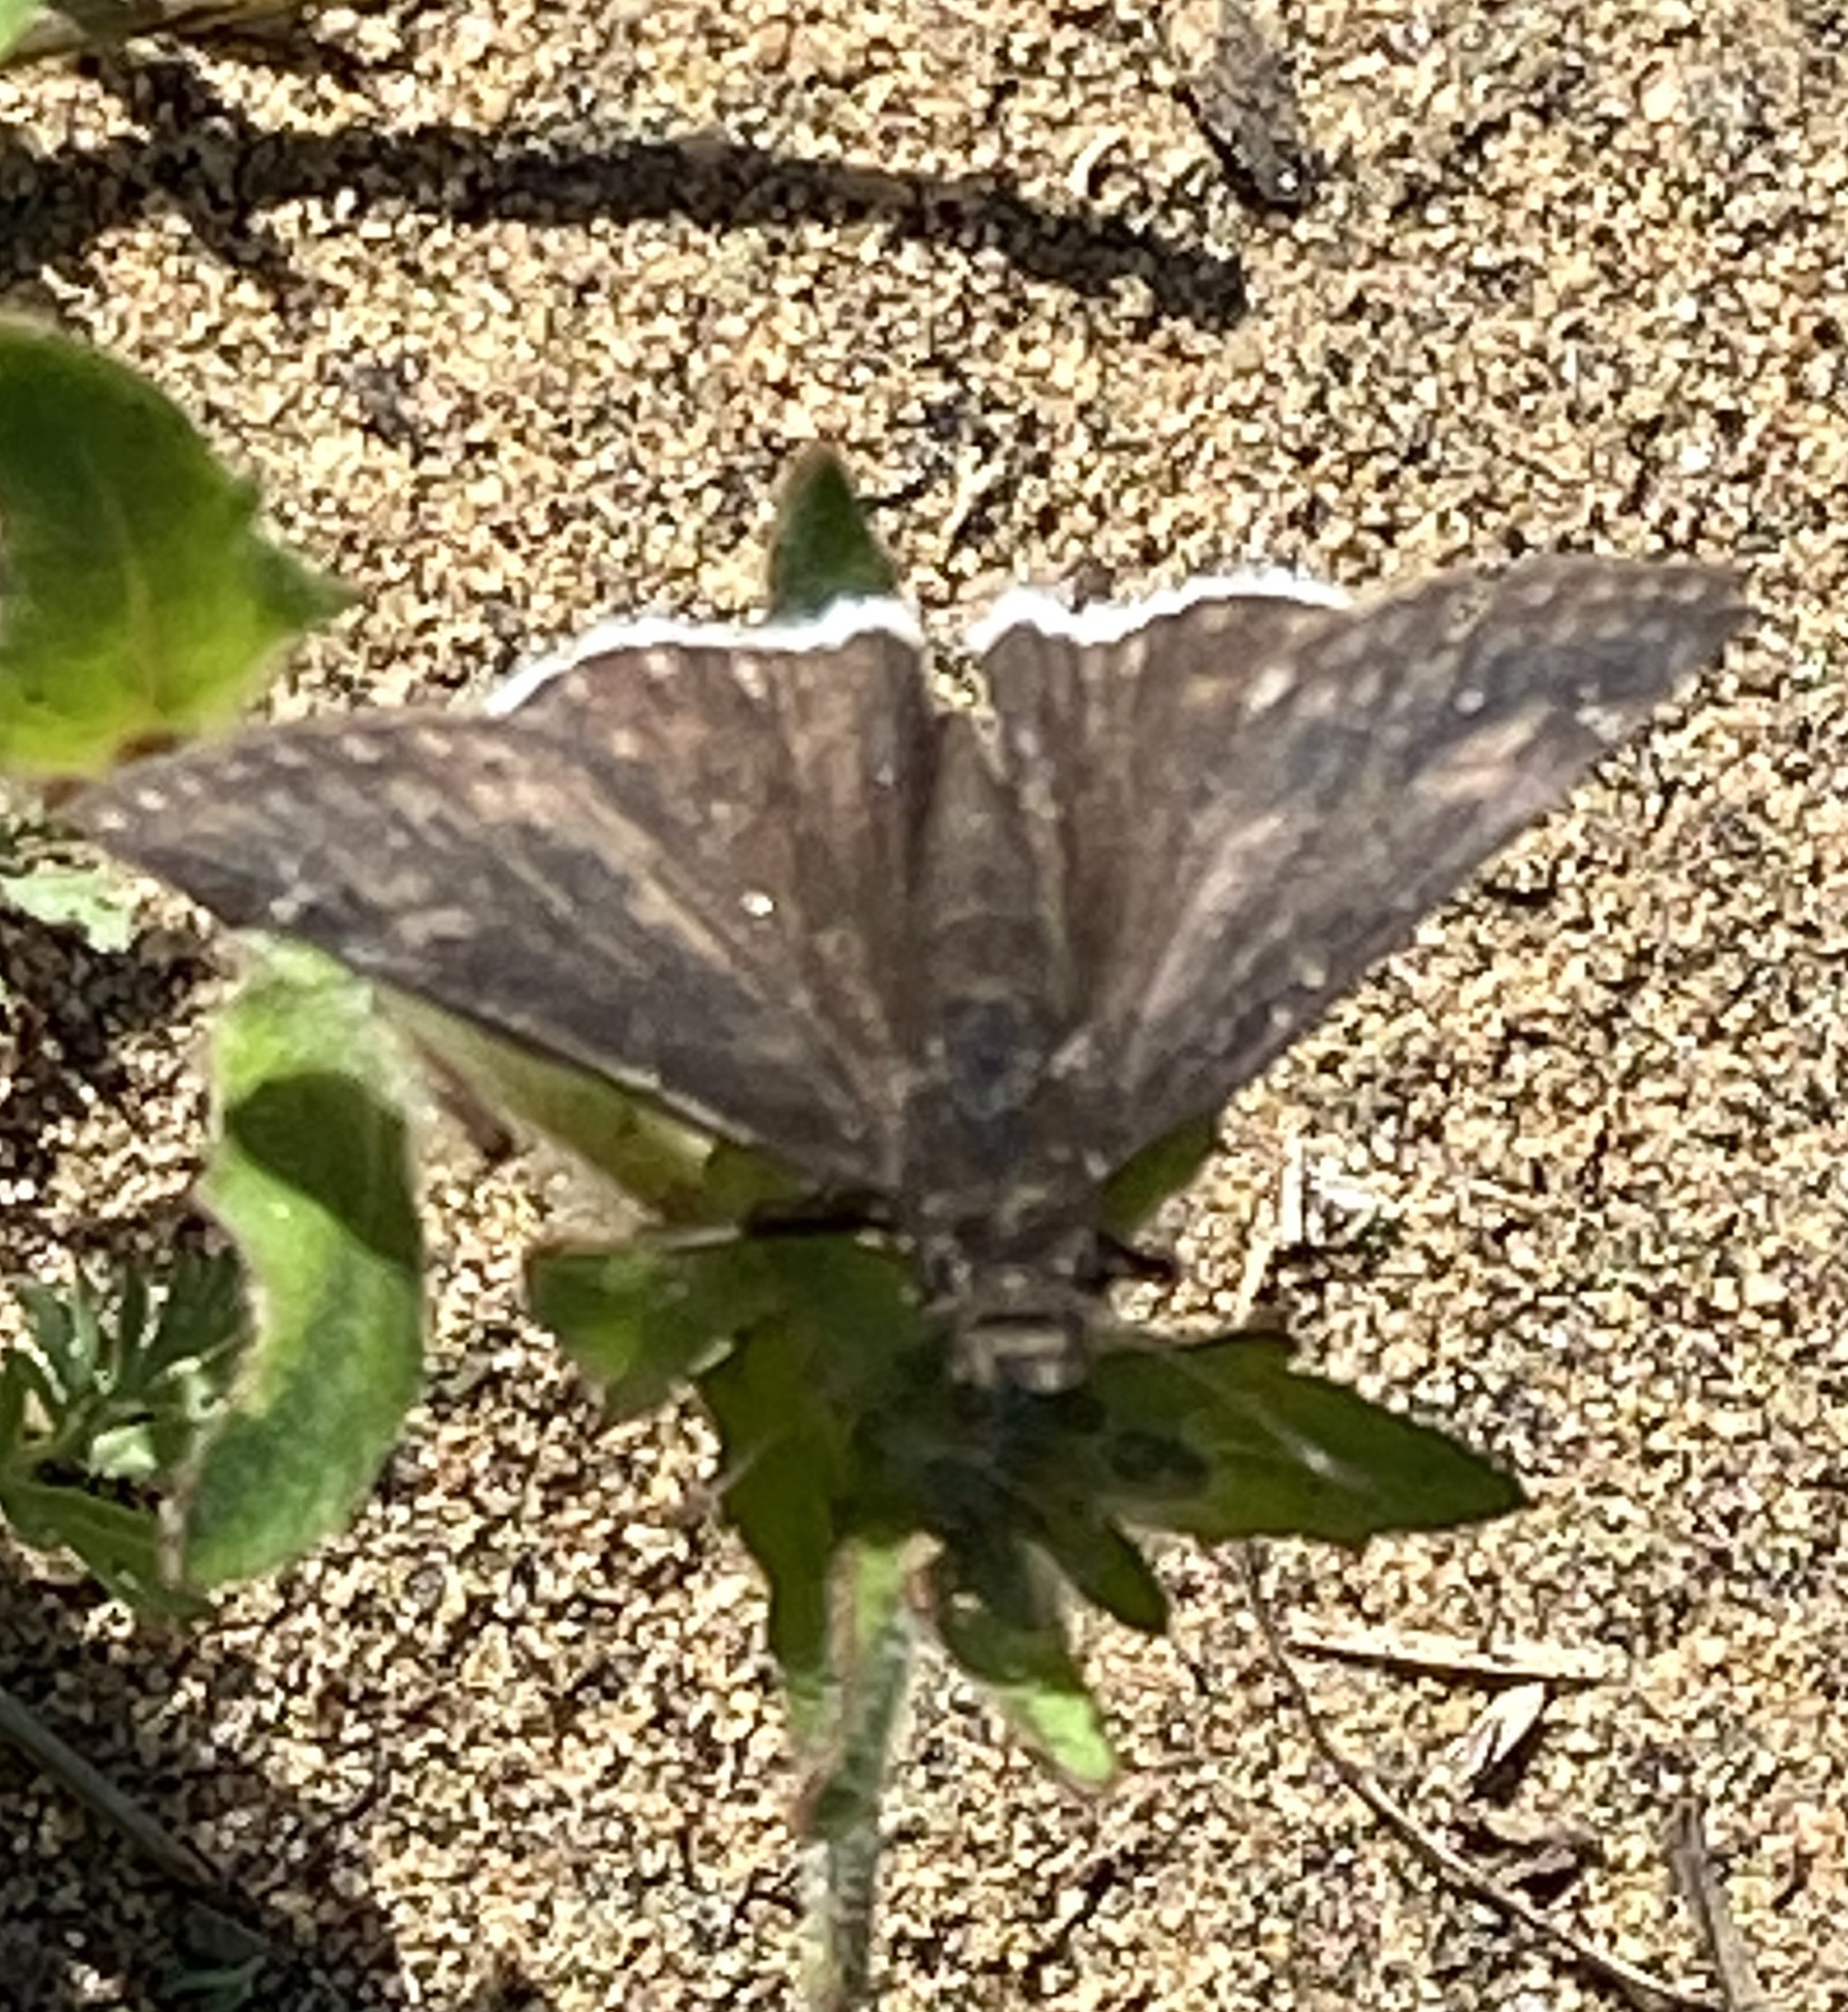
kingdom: Animalia
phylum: Arthropoda
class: Insecta
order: Lepidoptera
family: Hesperiidae
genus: Erynnis
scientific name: Erynnis funeralis
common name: Funereal duskywing
